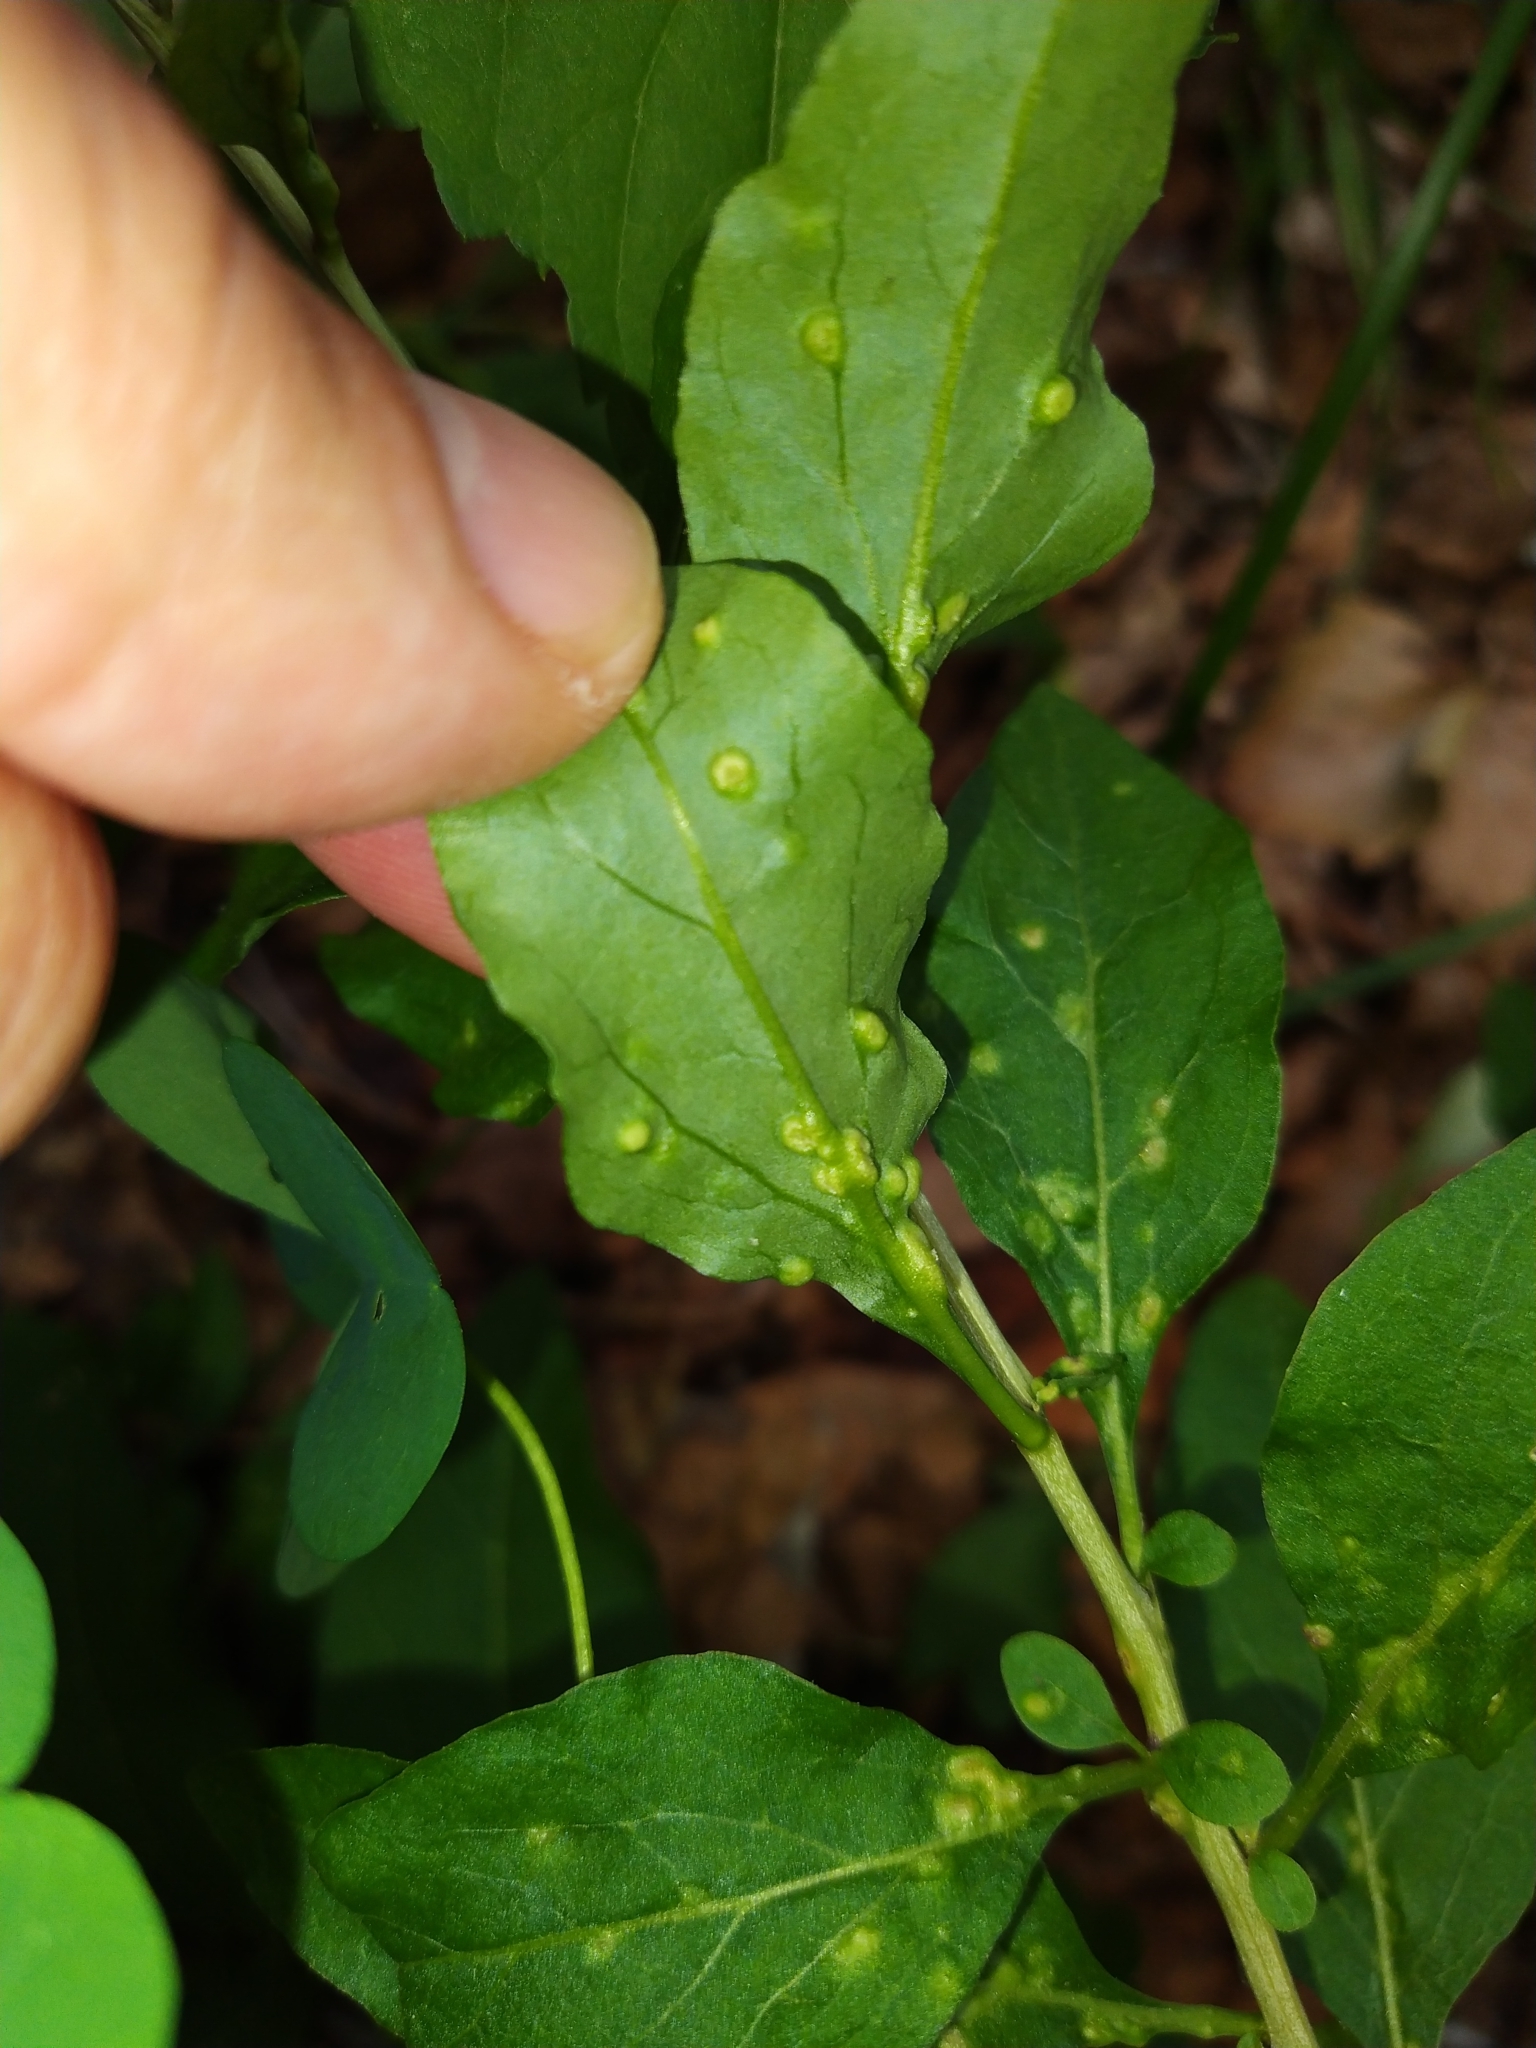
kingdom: Animalia
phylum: Arthropoda
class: Arachnida
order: Trombidiformes
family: Eriophyidae
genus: Aceria
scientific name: Aceria kuko
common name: Goji gall mite
